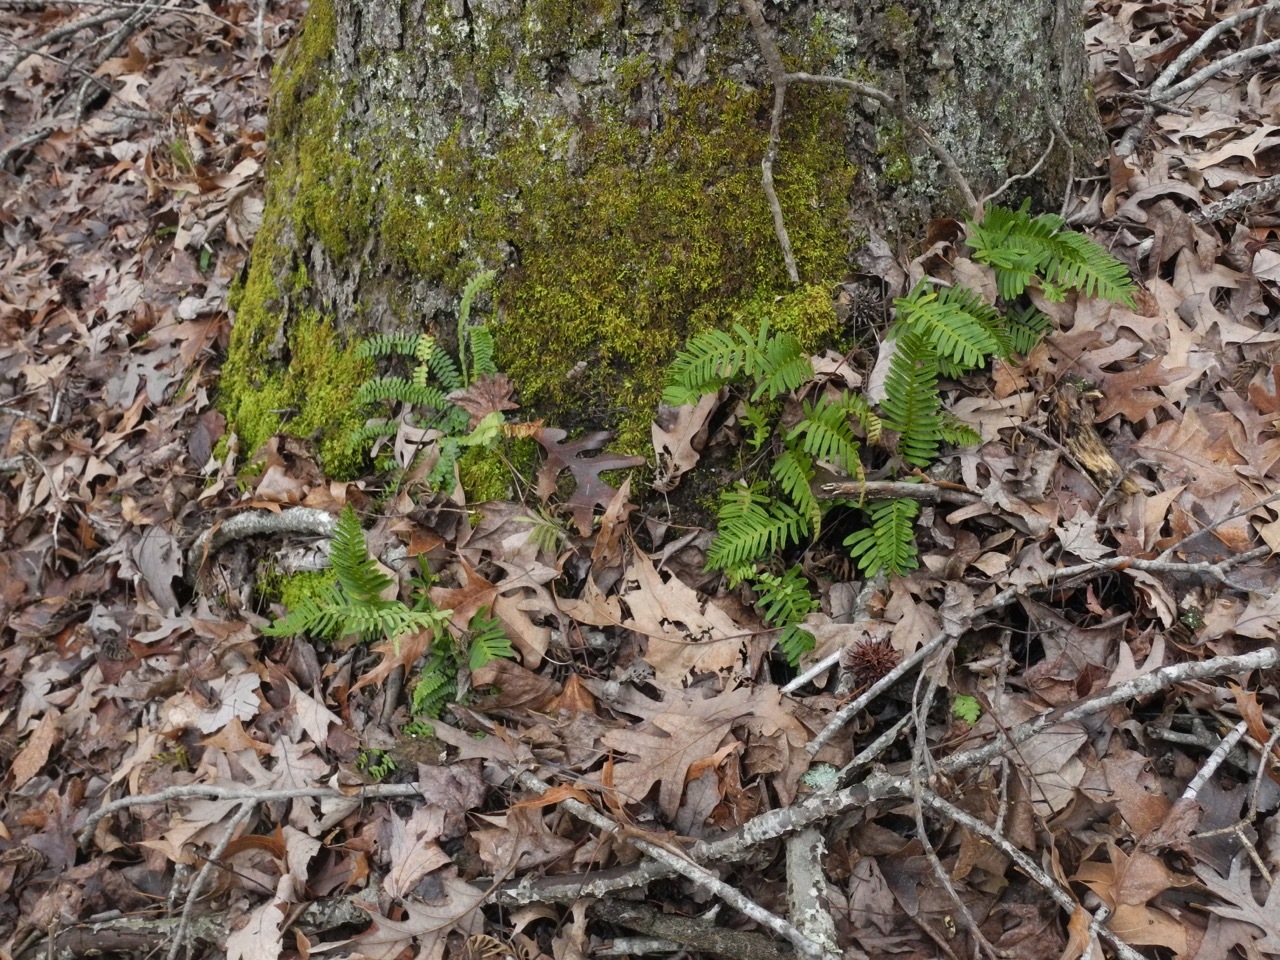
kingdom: Plantae
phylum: Tracheophyta
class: Polypodiopsida
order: Polypodiales
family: Polypodiaceae
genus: Pleopeltis
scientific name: Pleopeltis michauxiana
